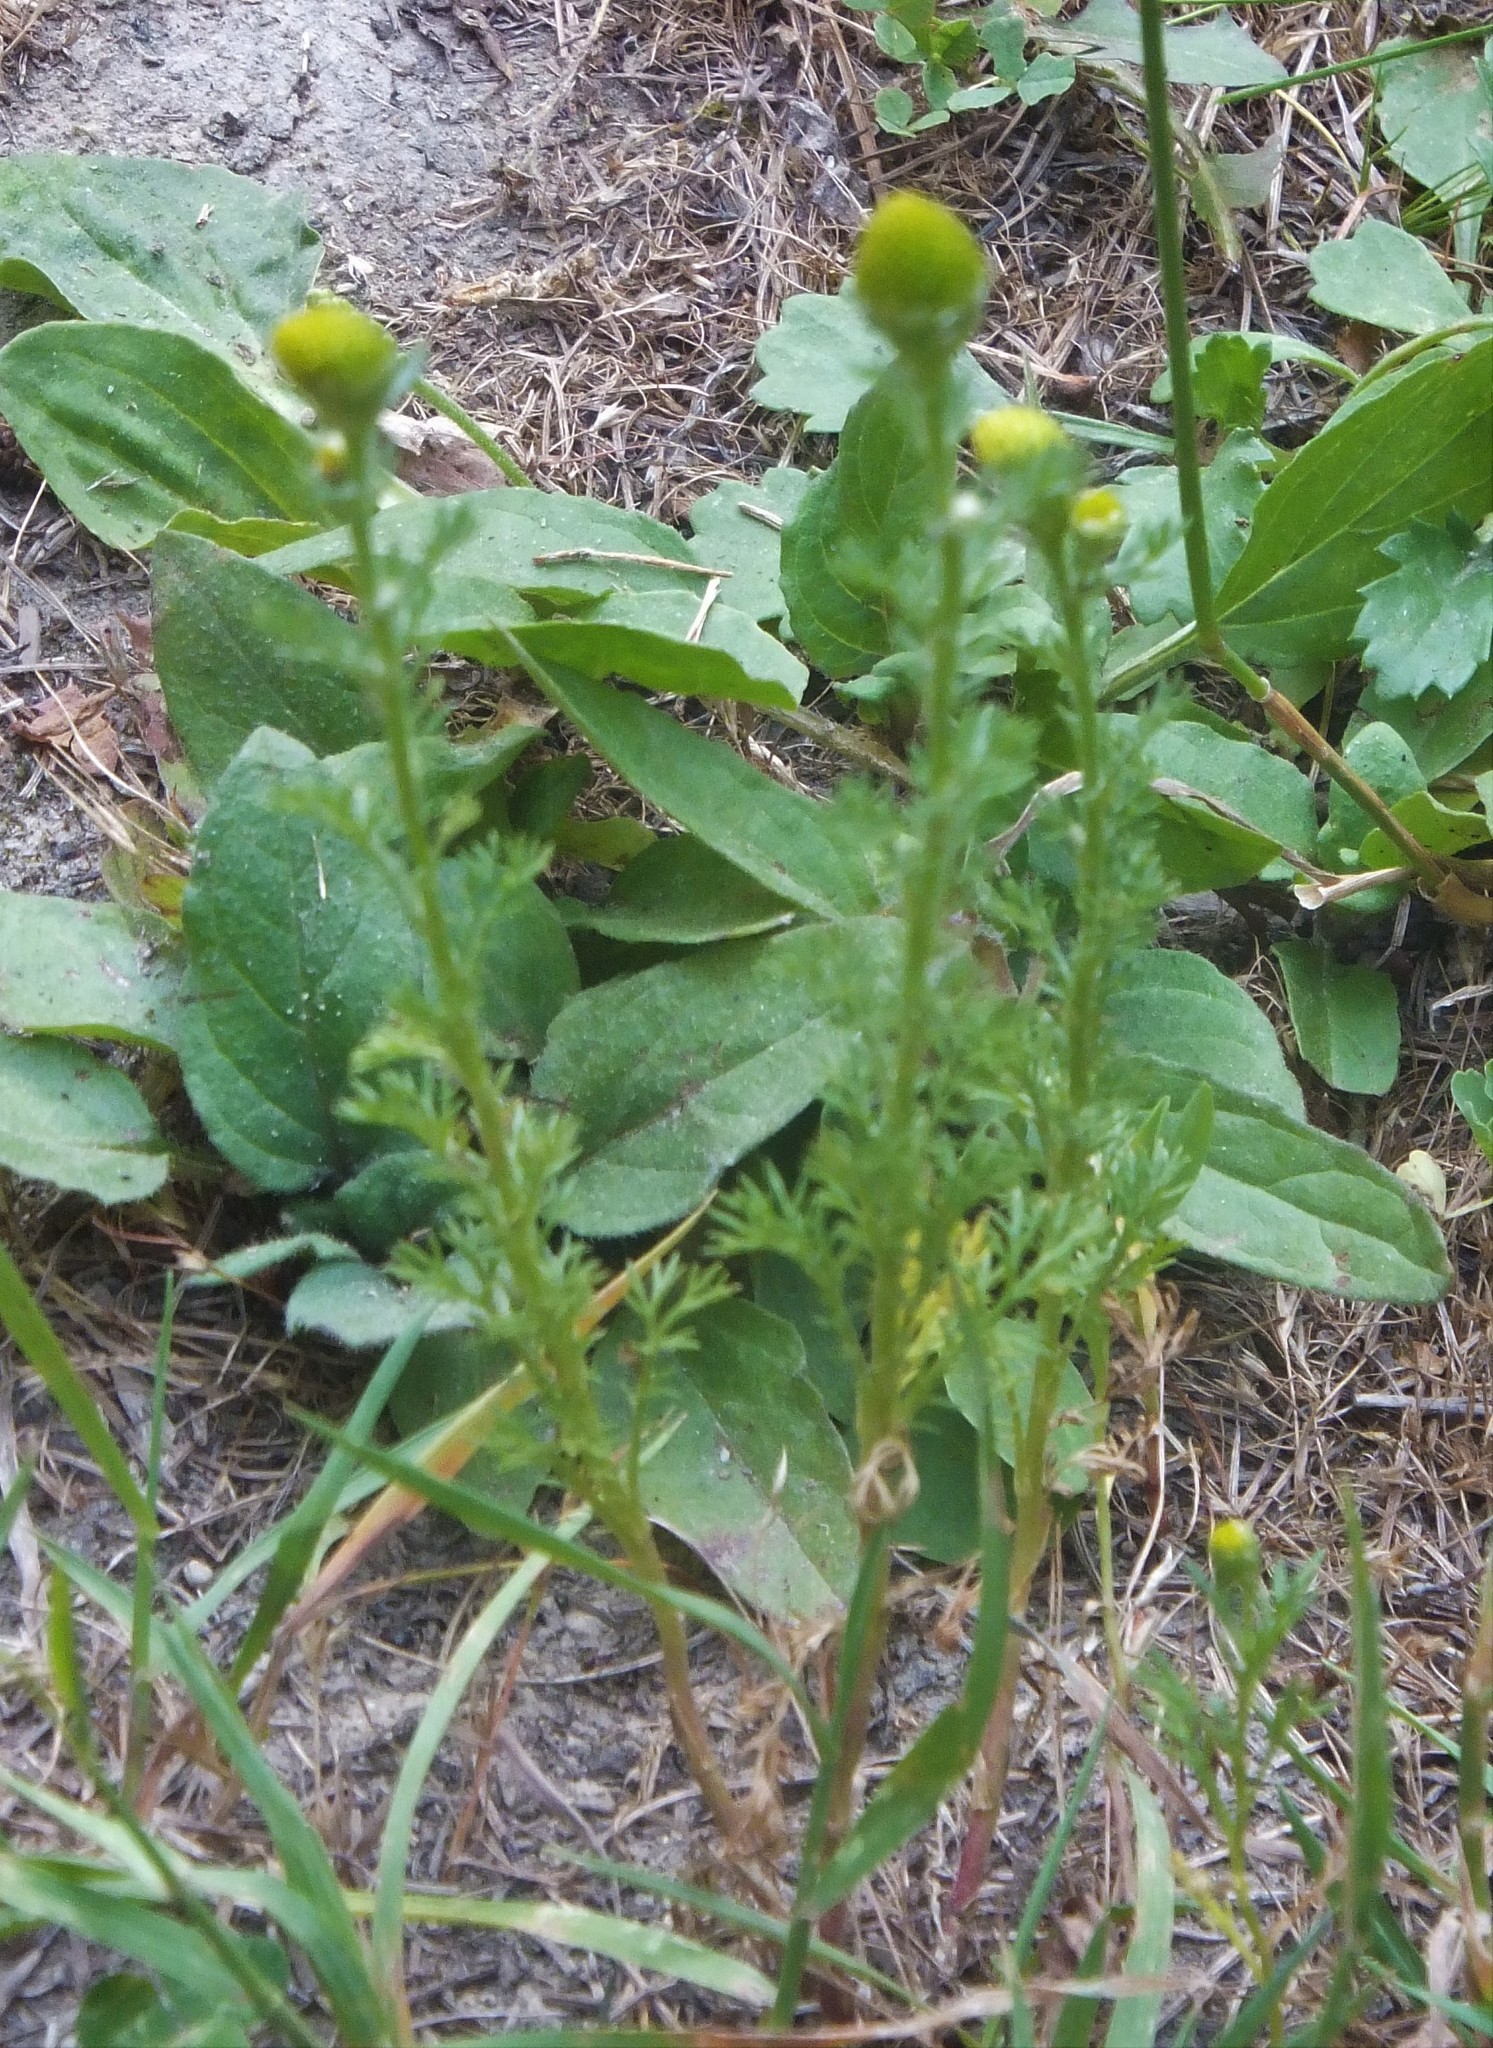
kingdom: Plantae
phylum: Tracheophyta
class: Magnoliopsida
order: Asterales
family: Asteraceae
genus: Matricaria
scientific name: Matricaria discoidea
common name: Disc mayweed
